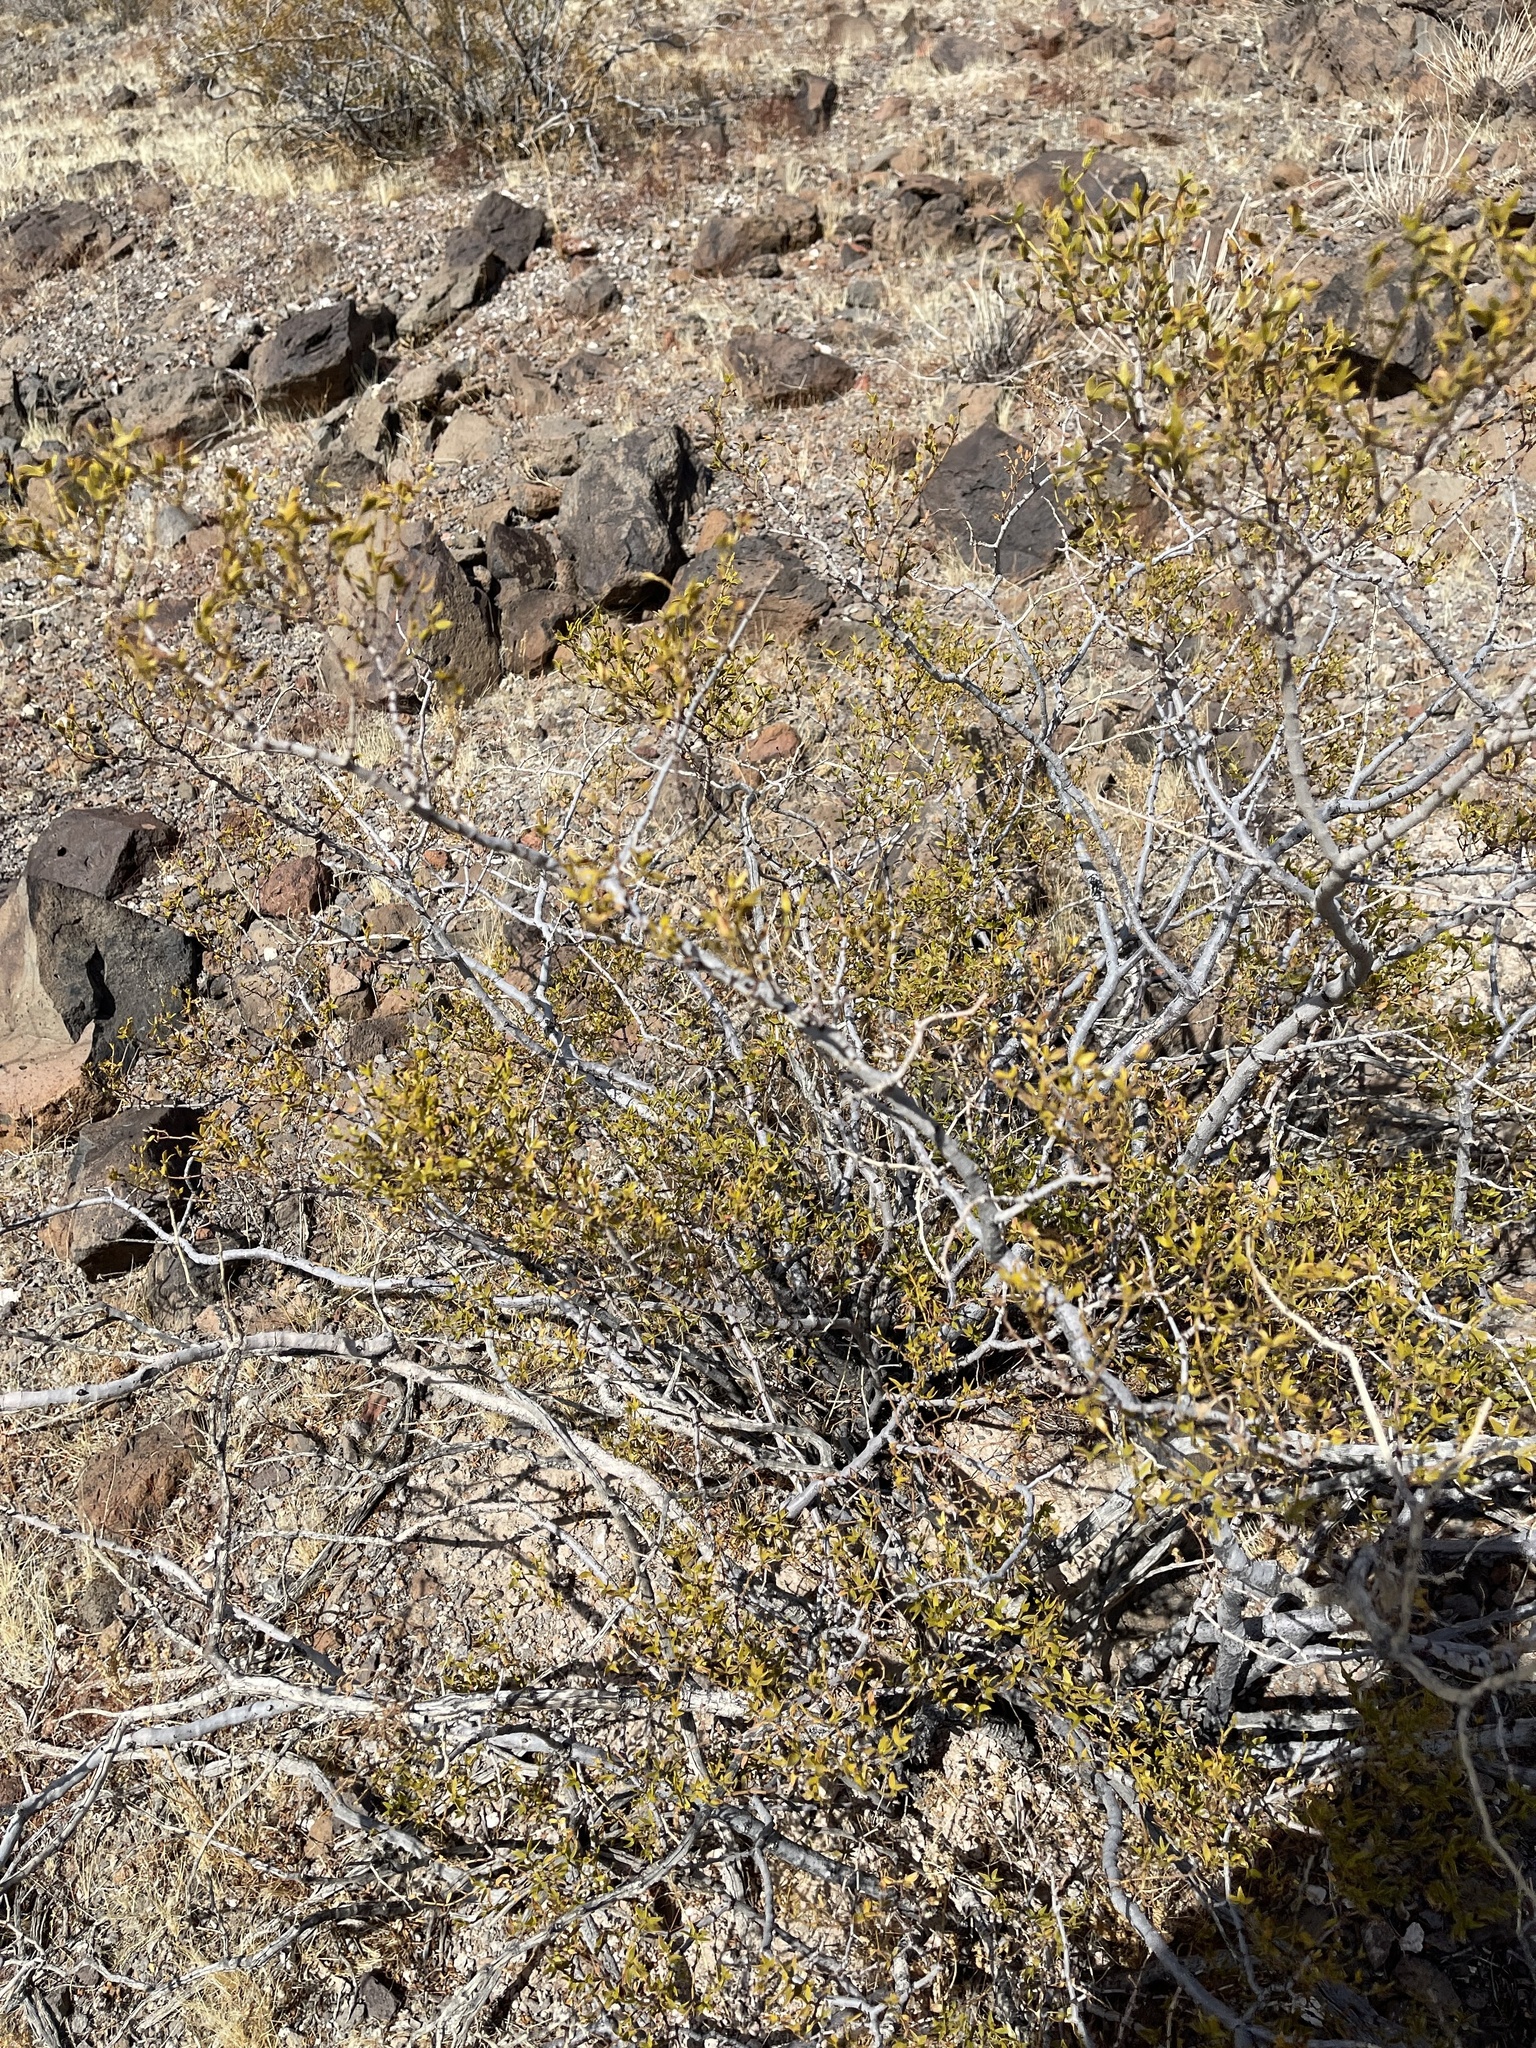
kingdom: Plantae
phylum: Tracheophyta
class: Magnoliopsida
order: Zygophyllales
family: Zygophyllaceae
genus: Larrea
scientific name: Larrea tridentata
